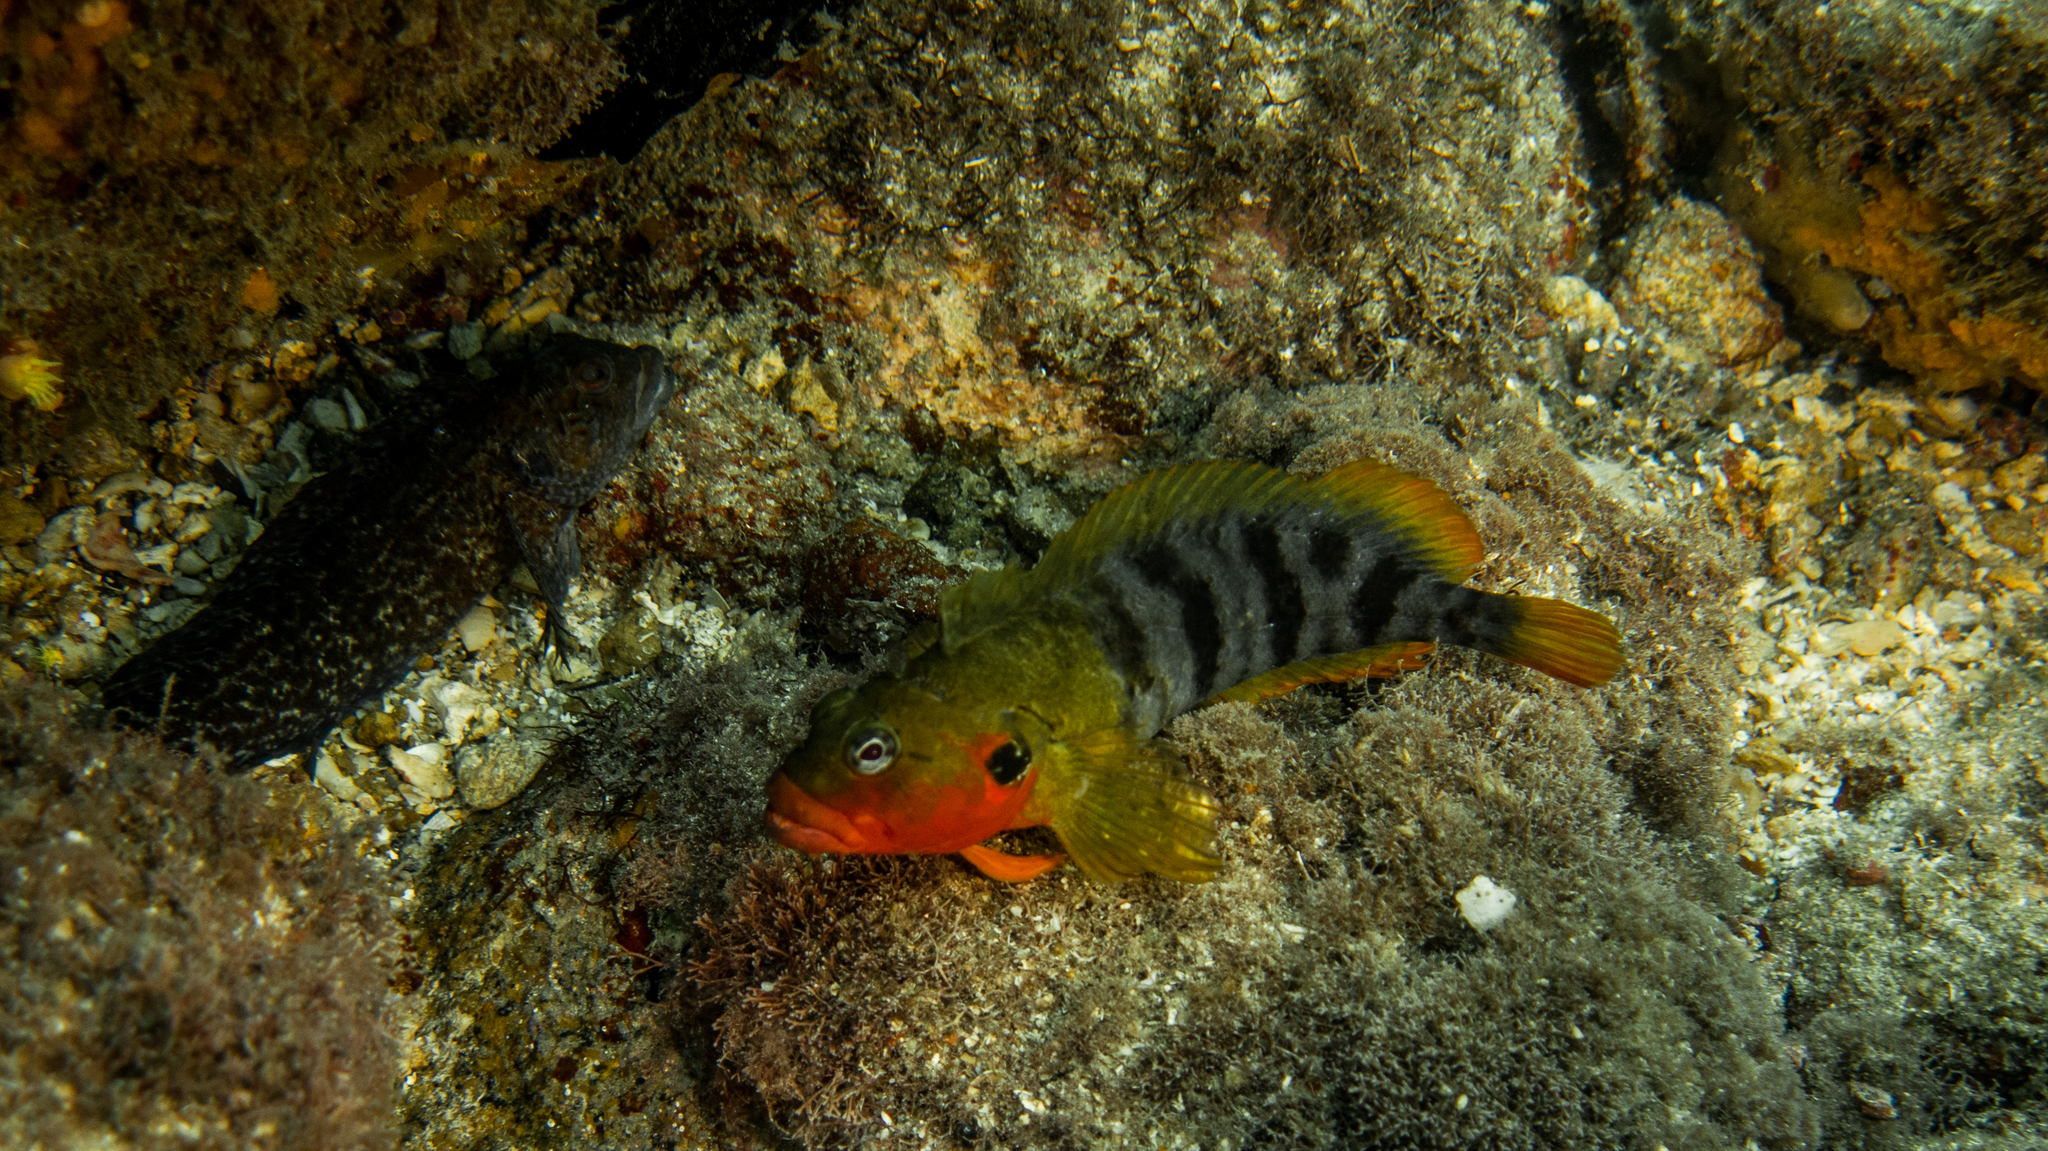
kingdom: Animalia
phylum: Chordata
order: Perciformes
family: Labrisomidae
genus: Labrisomus
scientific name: Labrisomus nuchipinnis
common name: Hairy blenny
